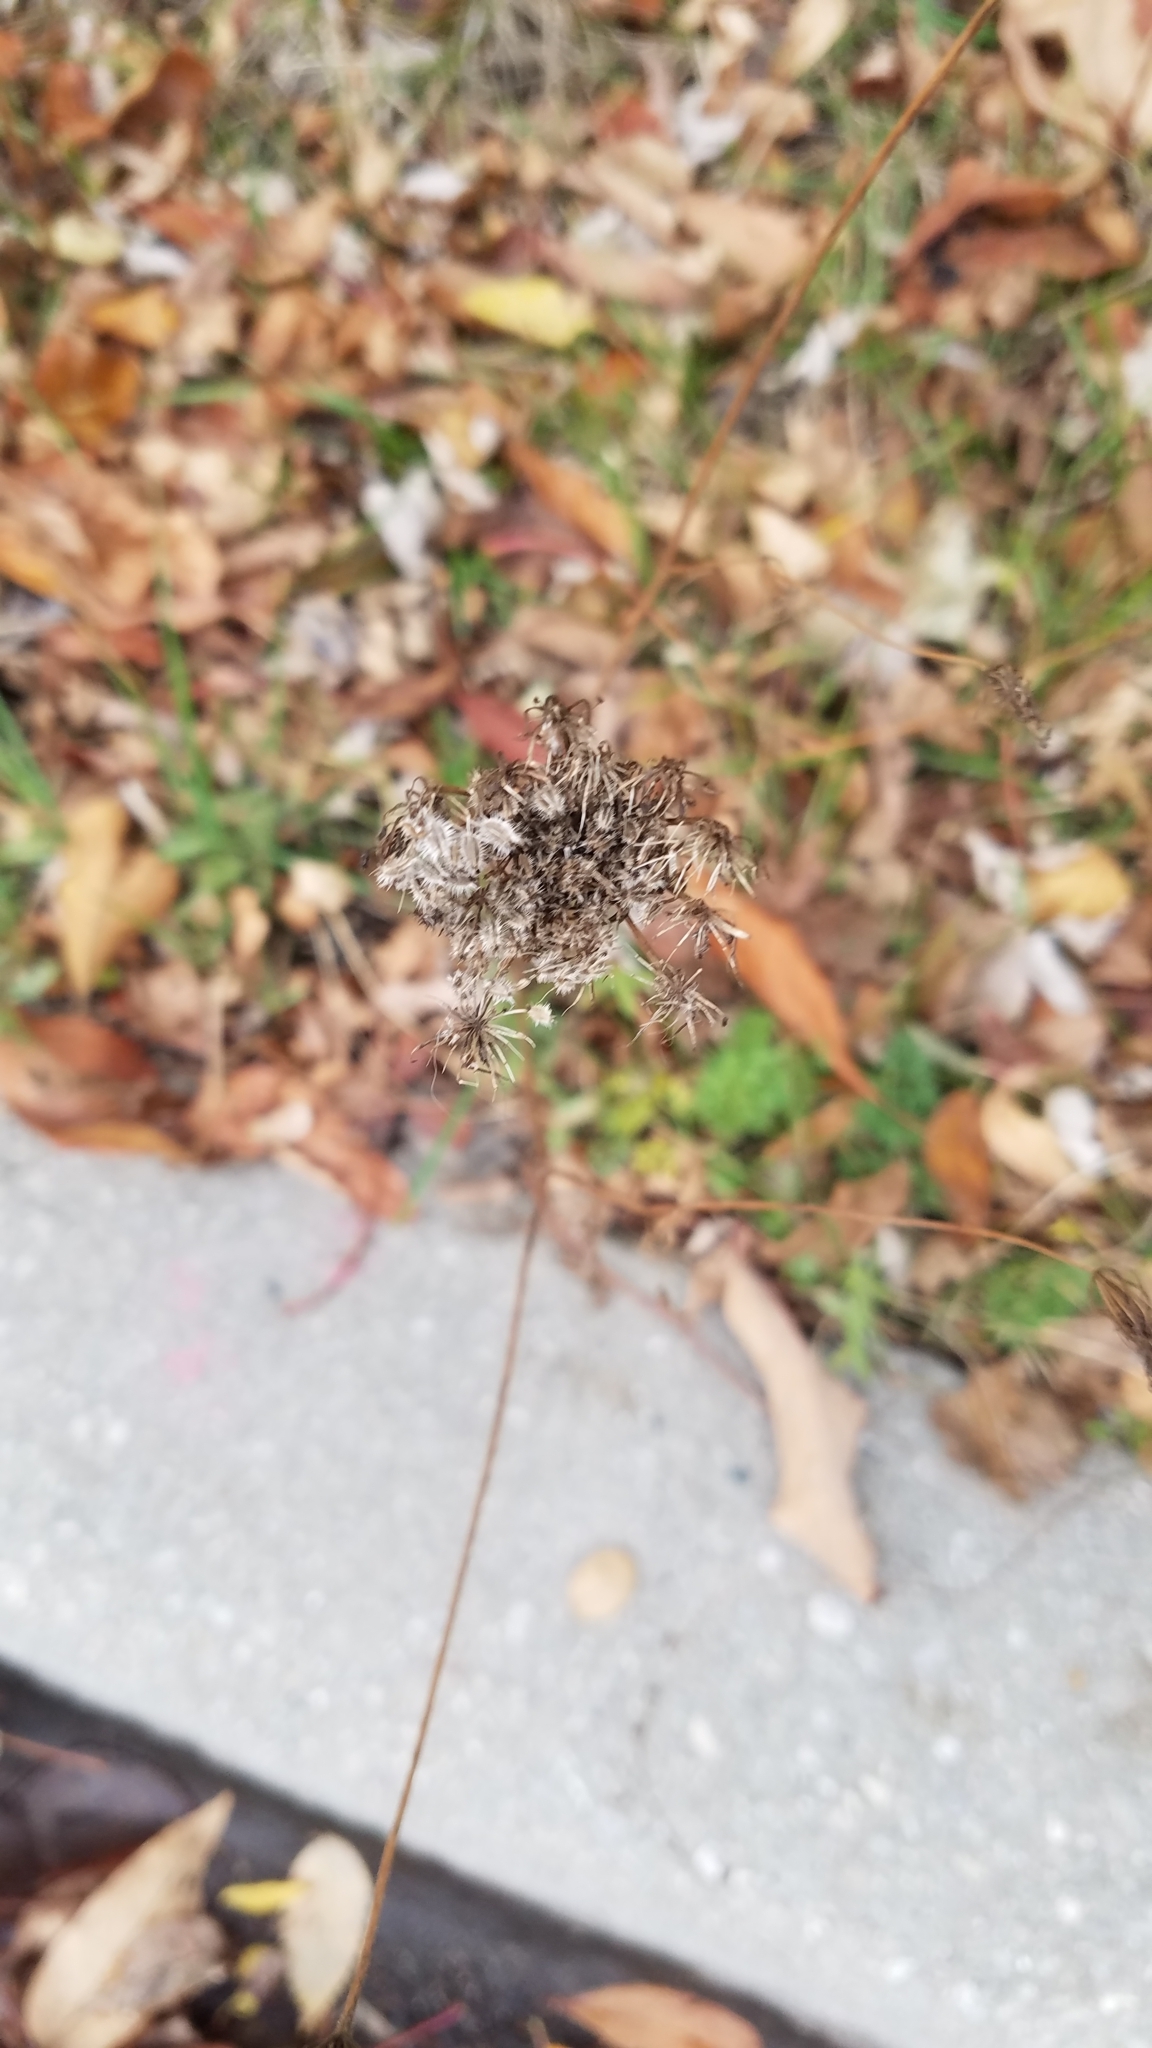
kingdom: Plantae
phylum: Tracheophyta
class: Magnoliopsida
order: Apiales
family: Apiaceae
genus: Daucus
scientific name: Daucus carota
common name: Wild carrot
